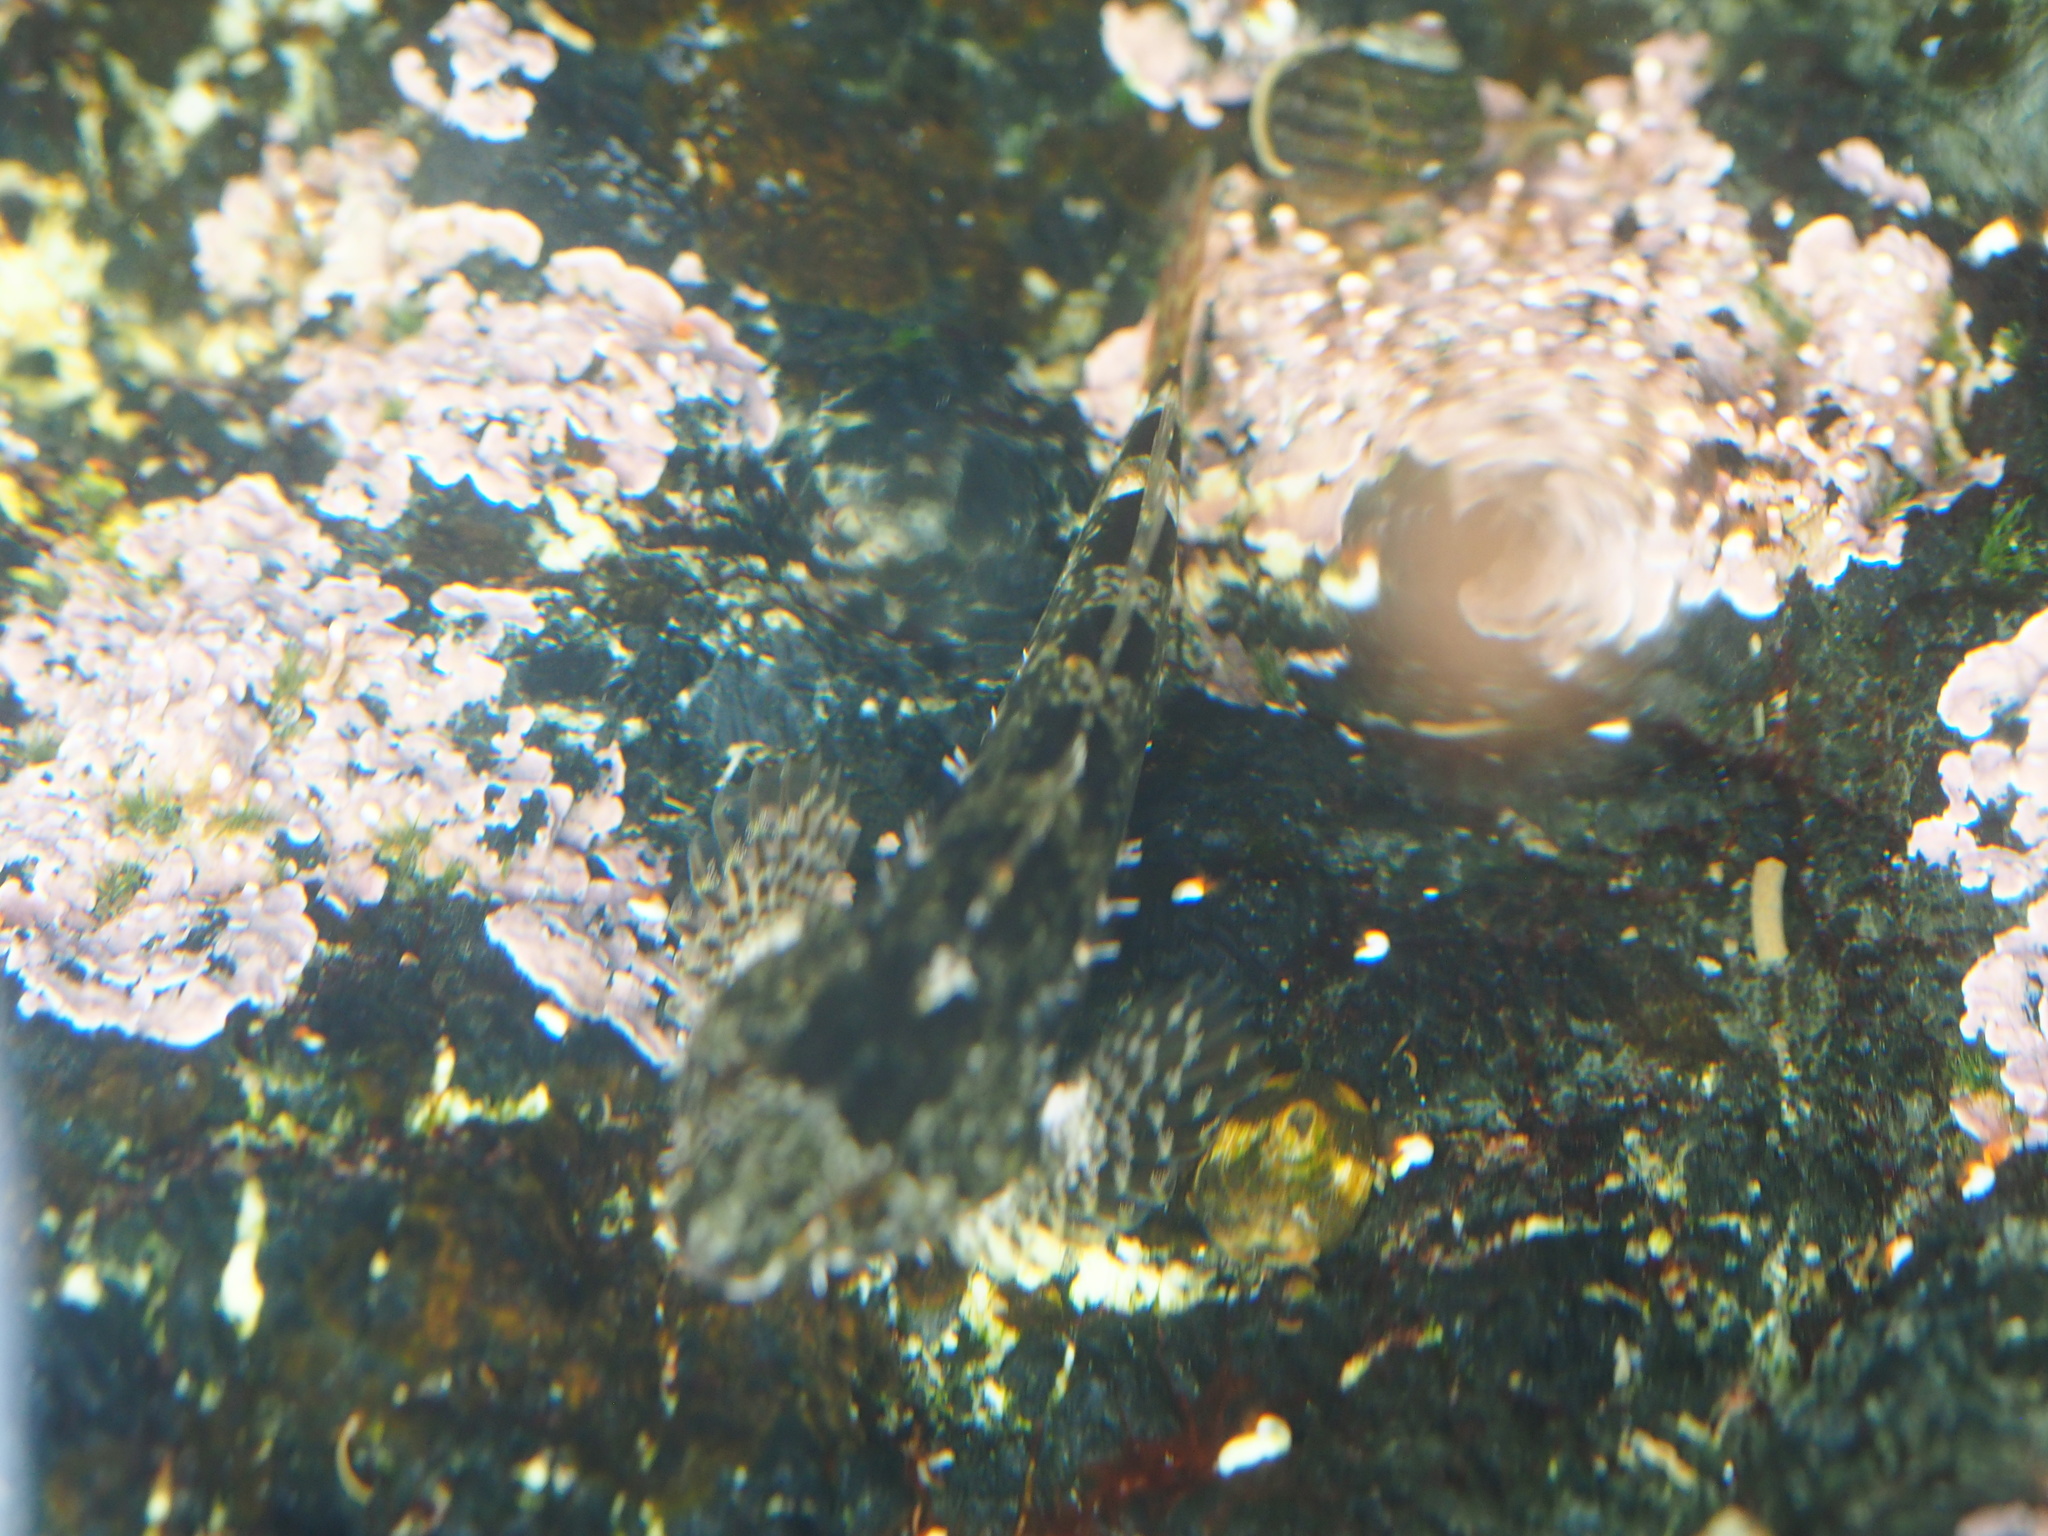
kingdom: Animalia
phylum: Chordata
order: Scorpaeniformes
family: Cottidae
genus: Oligocottus
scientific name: Oligocottus maculosus
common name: Tidepool sculpin
